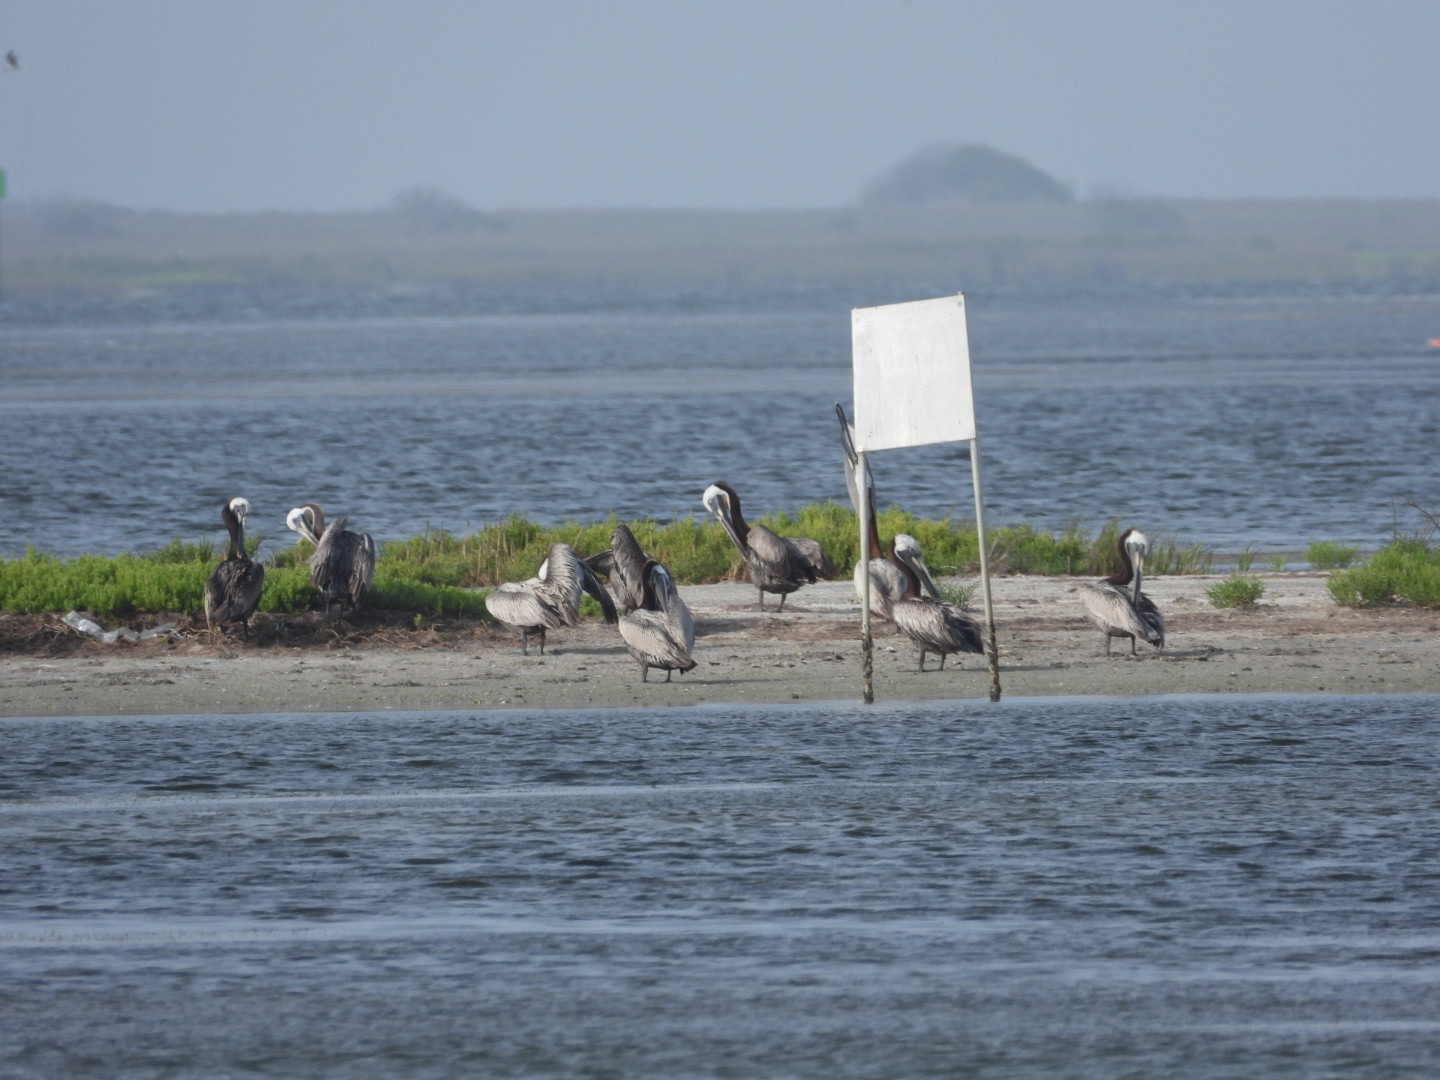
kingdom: Animalia
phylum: Chordata
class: Aves
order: Pelecaniformes
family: Pelecanidae
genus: Pelecanus
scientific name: Pelecanus occidentalis
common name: Brown pelican
